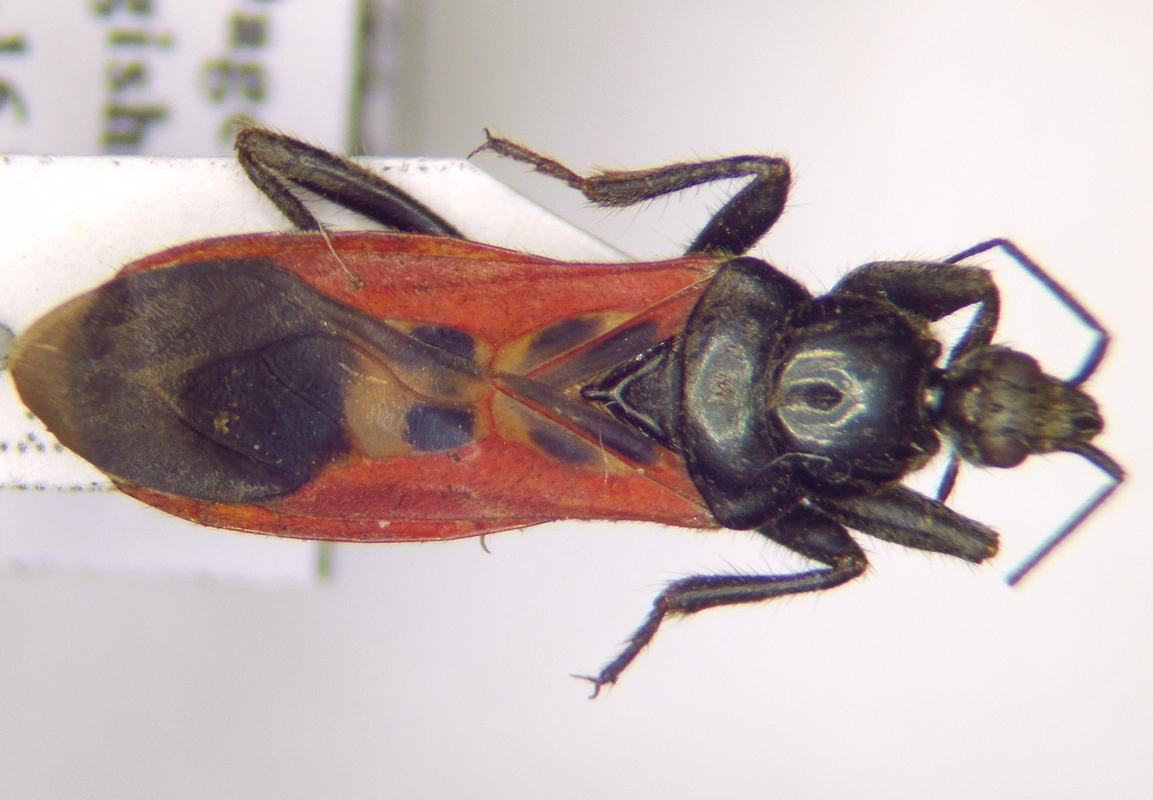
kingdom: Animalia
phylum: Arthropoda
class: Insecta
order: Hemiptera
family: Reduviidae
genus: Peirates
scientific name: Peirates hybridus
